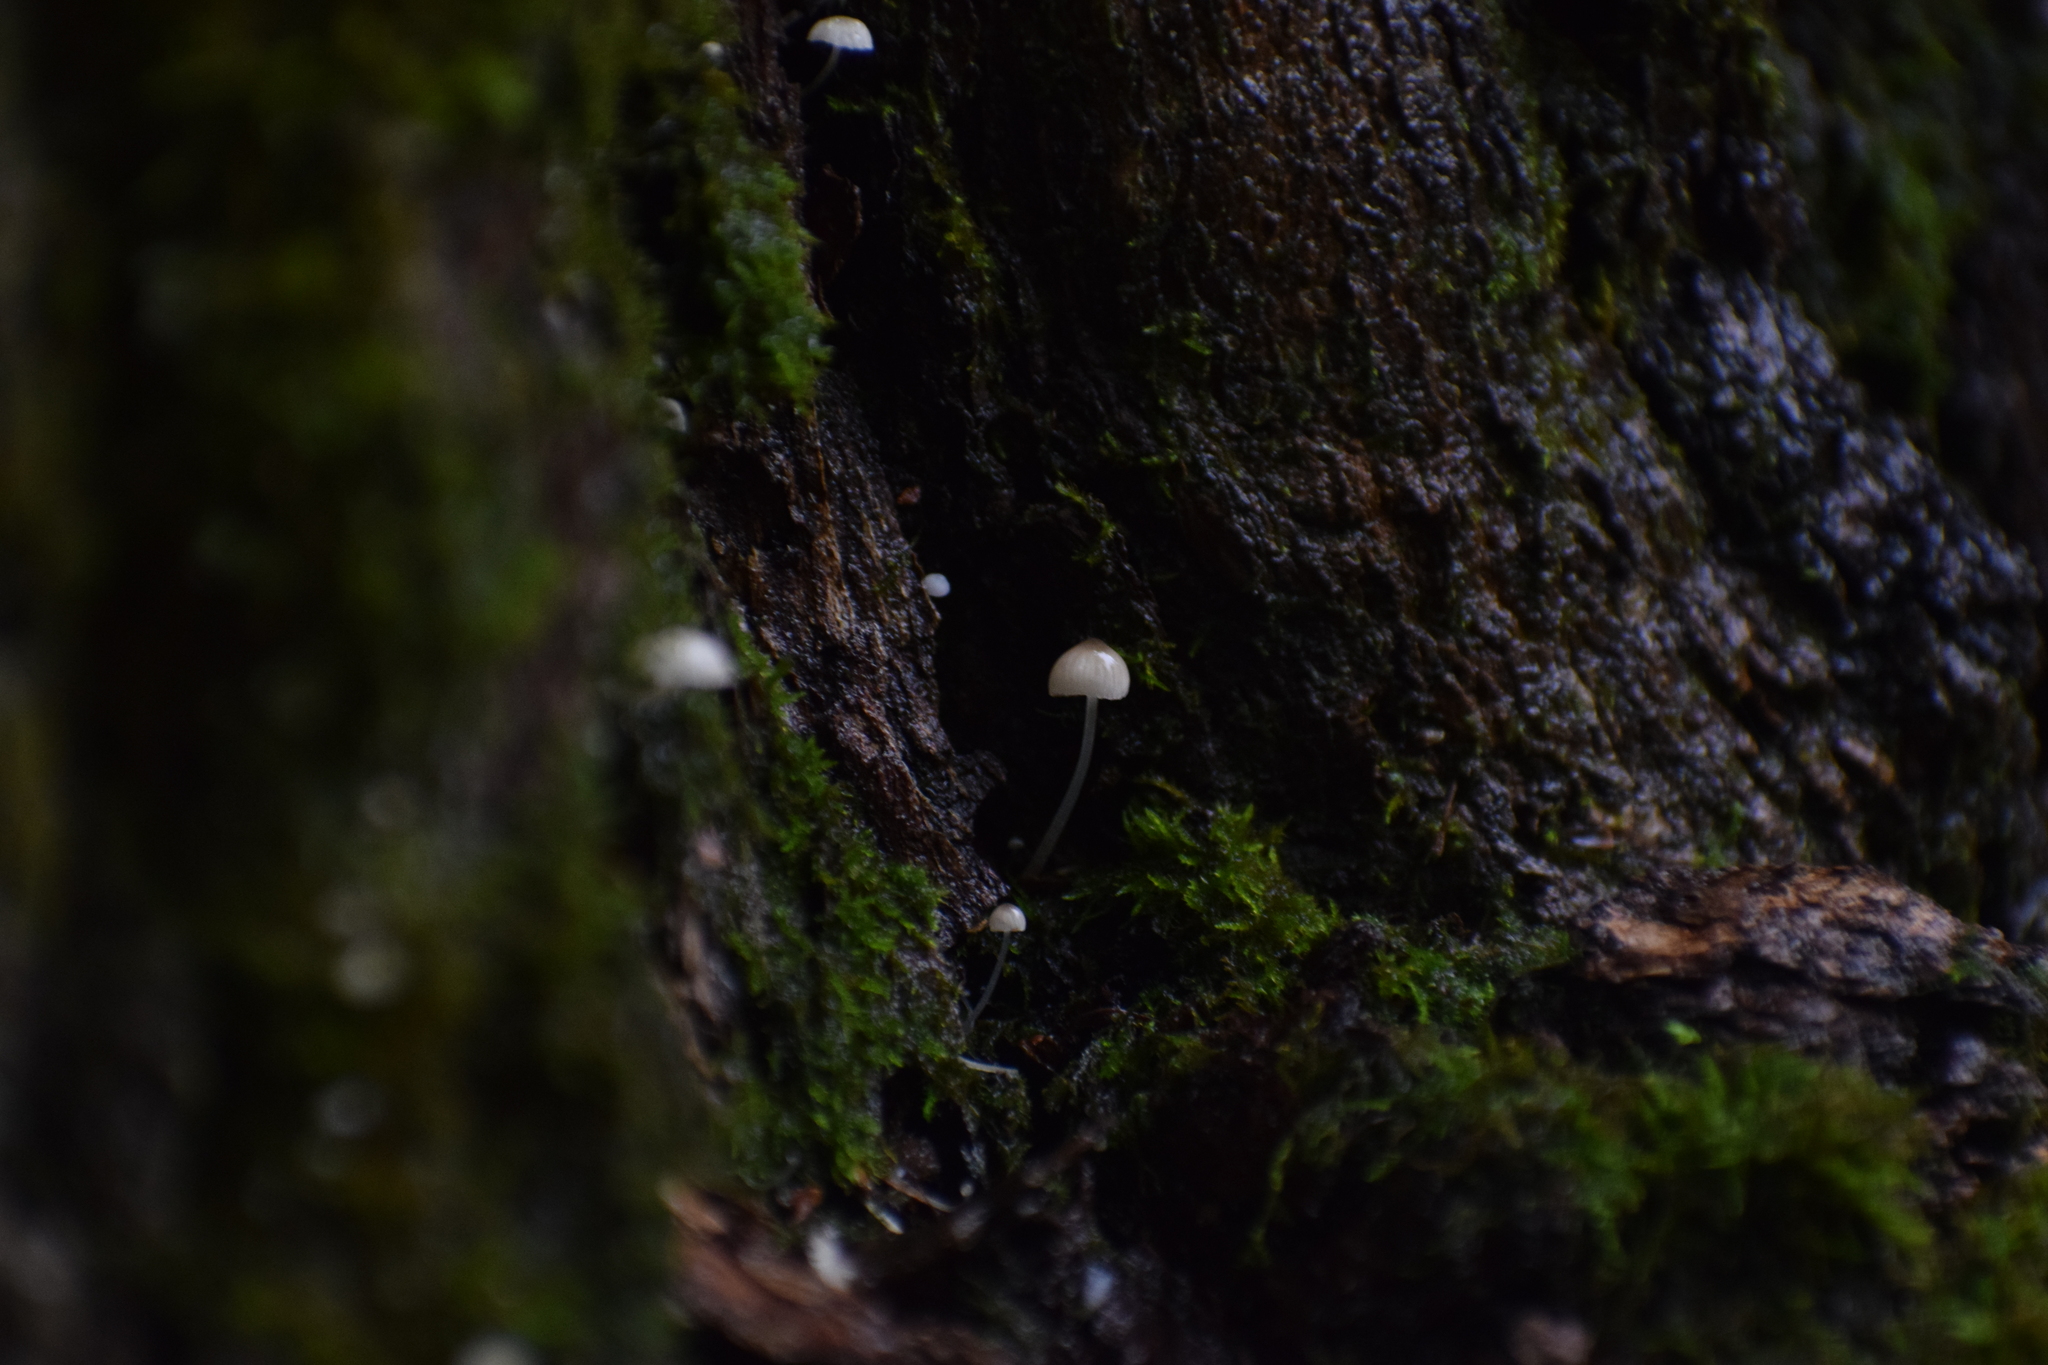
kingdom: Fungi
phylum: Basidiomycota
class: Agaricomycetes
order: Agaricales
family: Mycenaceae
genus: Mycena
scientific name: Mycena pseudocorticola
